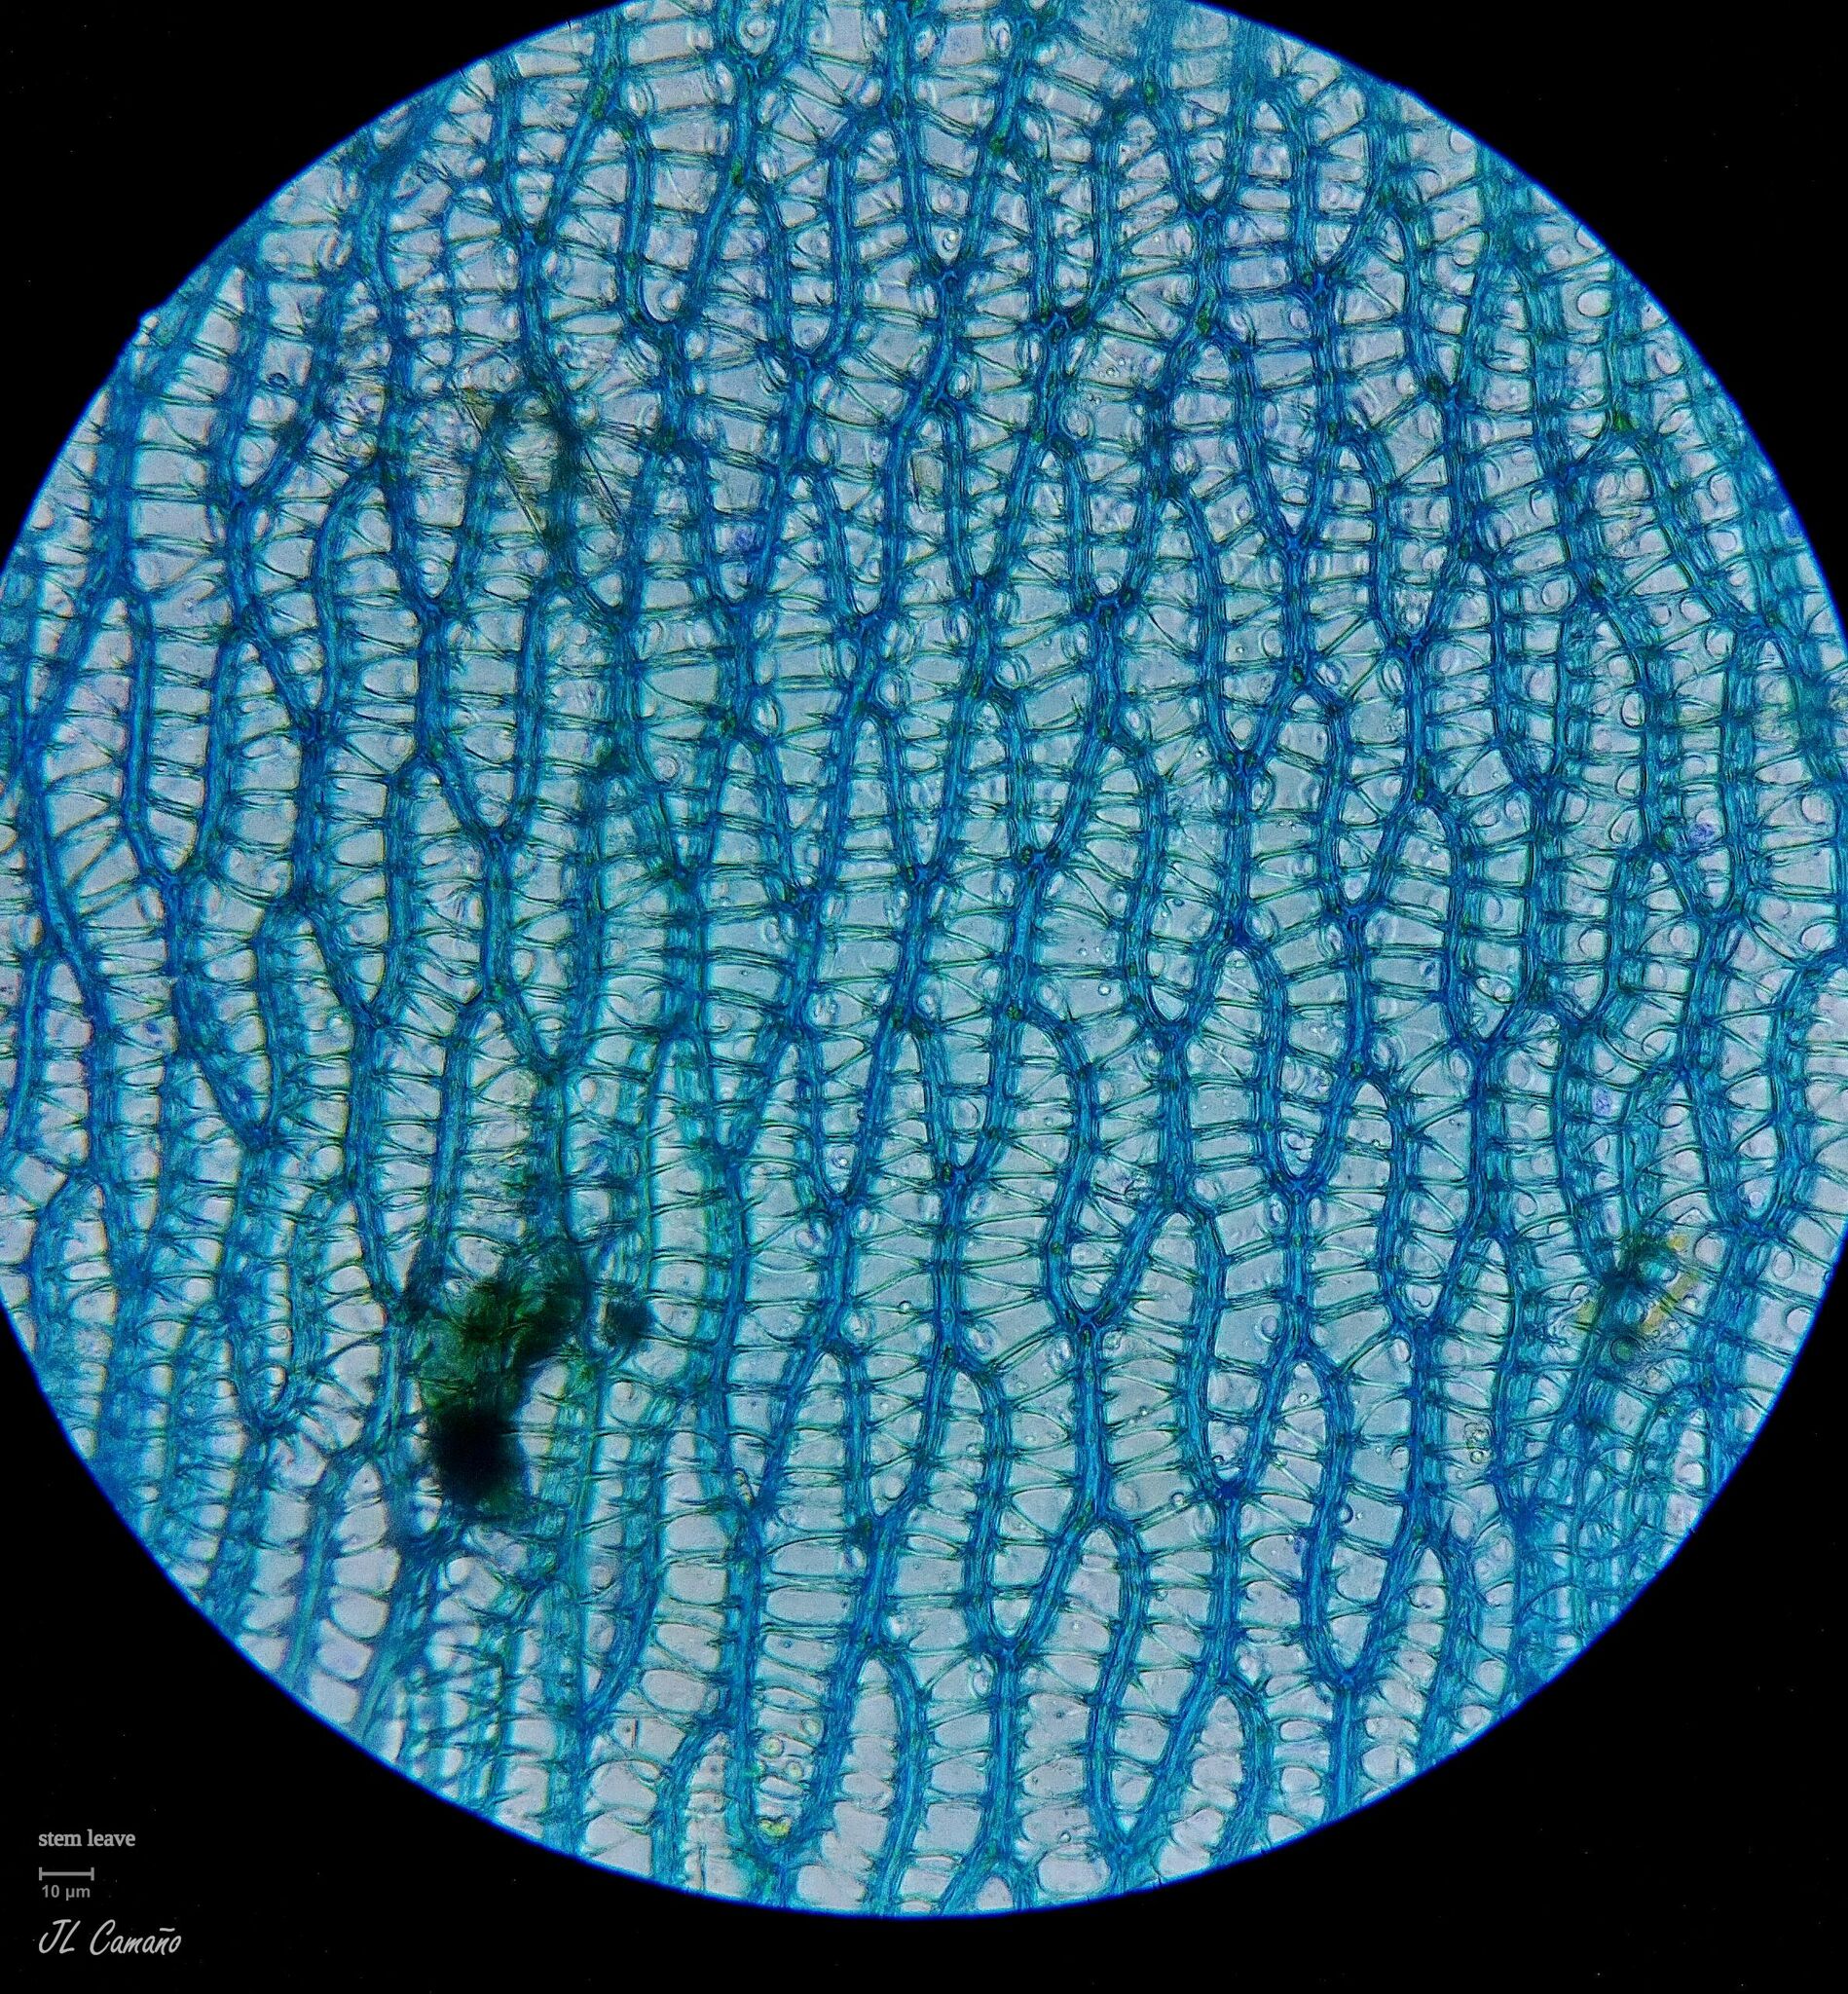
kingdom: Plantae
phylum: Bryophyta
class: Sphagnopsida
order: Sphagnales
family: Sphagnaceae
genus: Sphagnum
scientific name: Sphagnum inundatum
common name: Lesser cow-horn bog-moss
